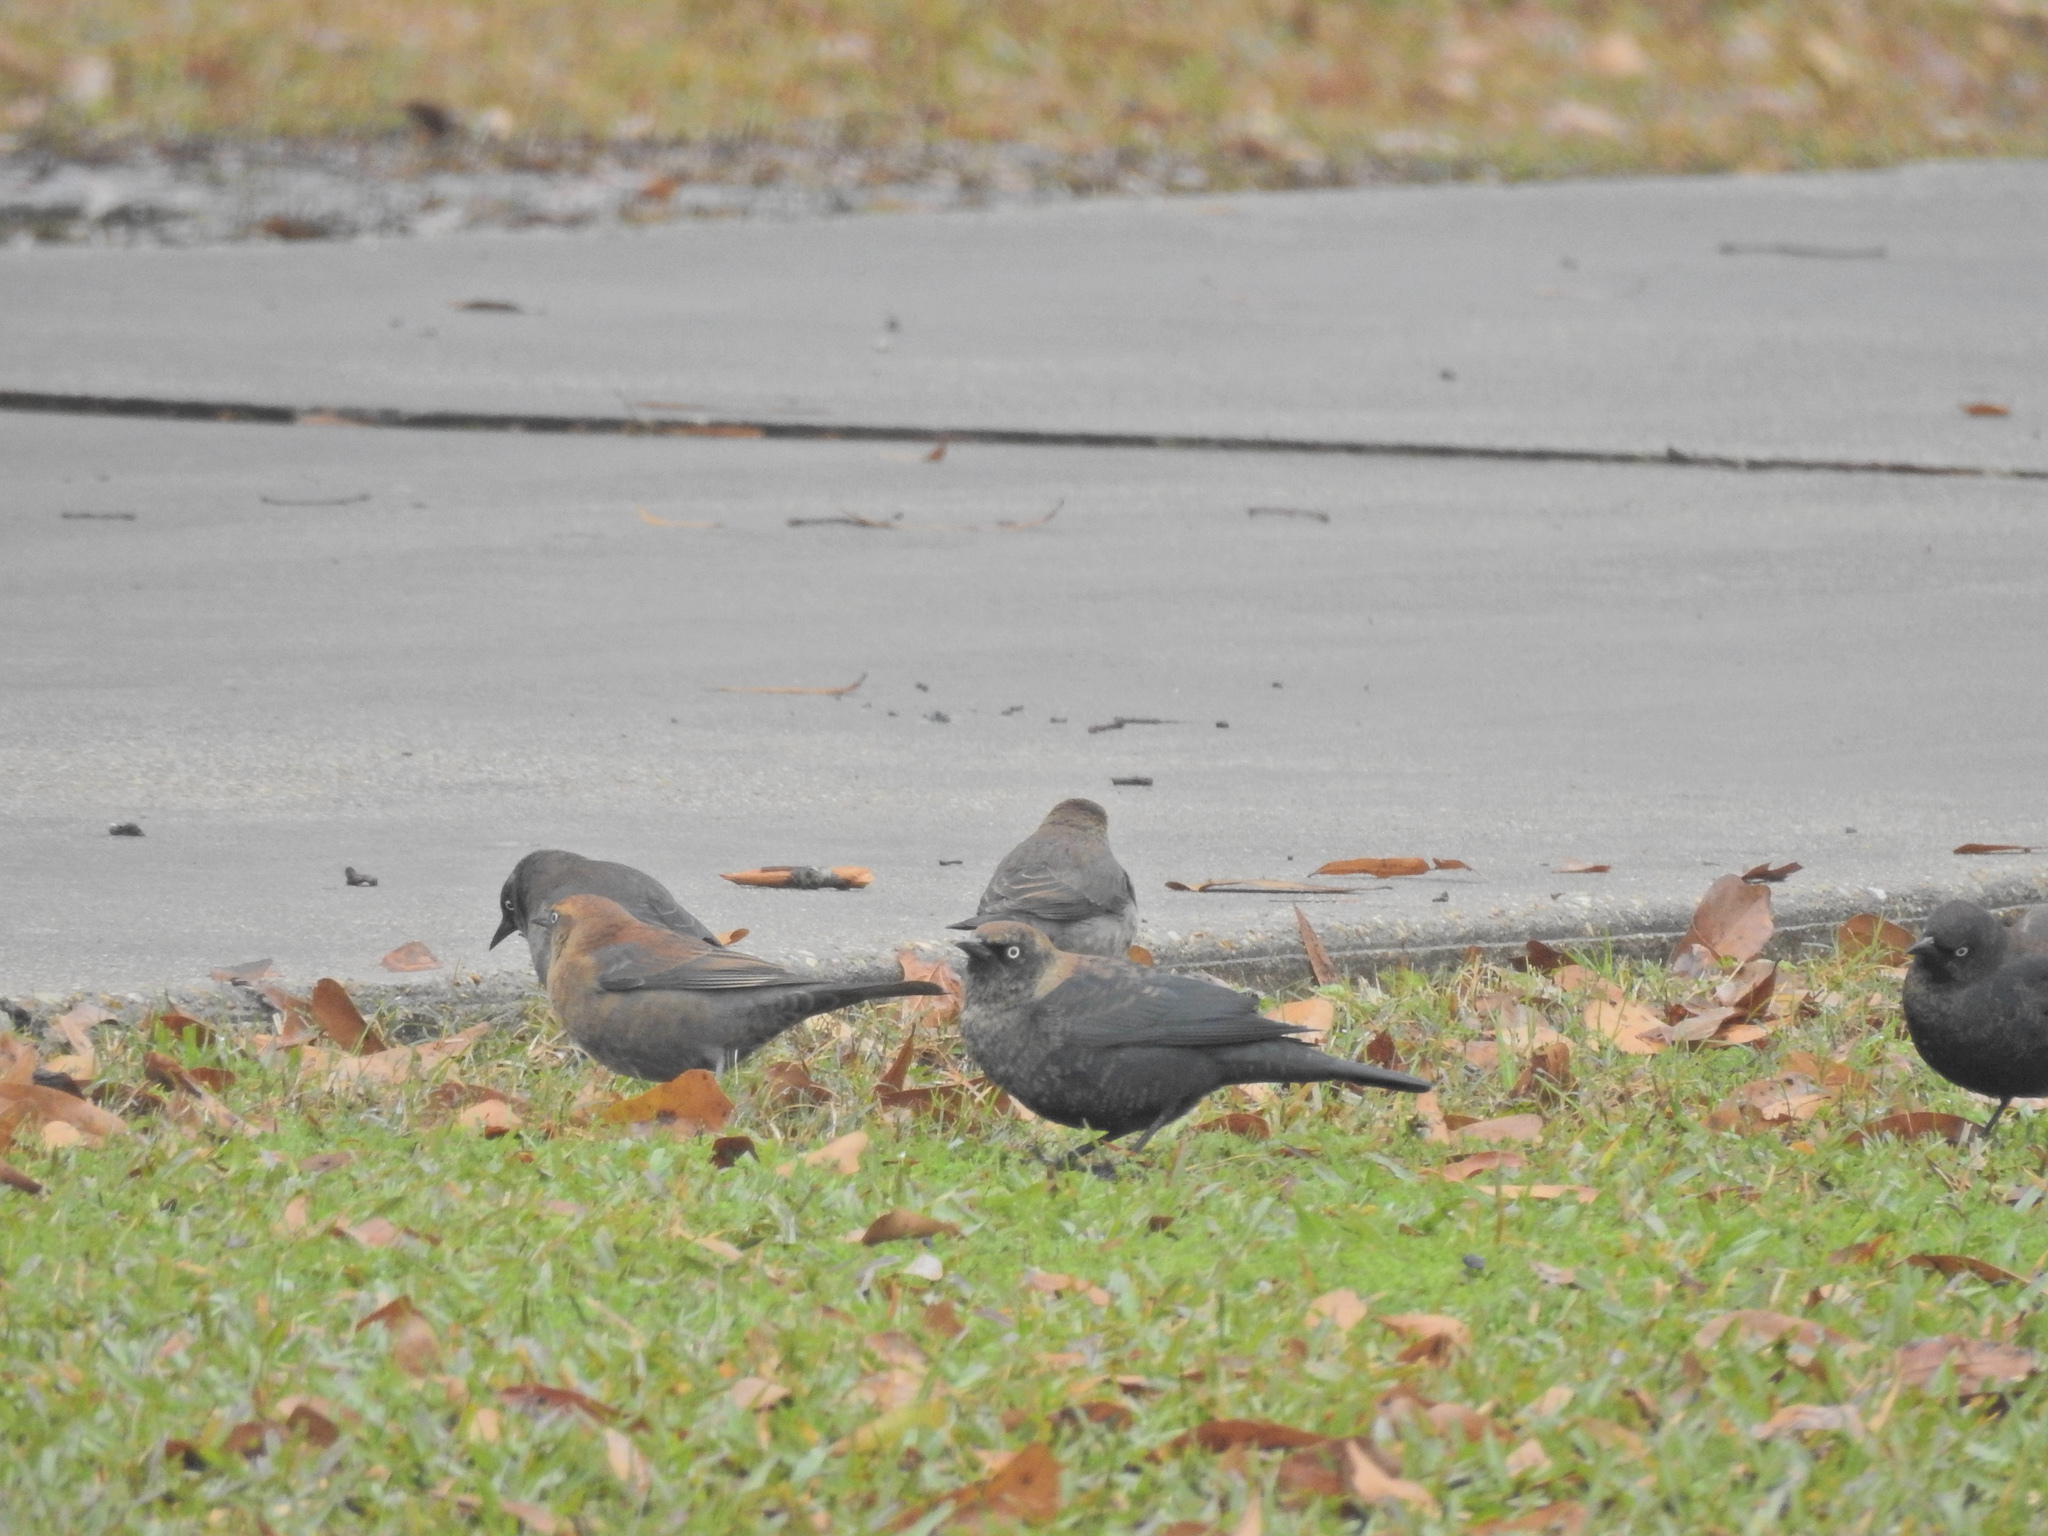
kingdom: Animalia
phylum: Chordata
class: Aves
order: Passeriformes
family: Icteridae
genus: Euphagus
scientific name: Euphagus carolinus
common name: Rusty blackbird
